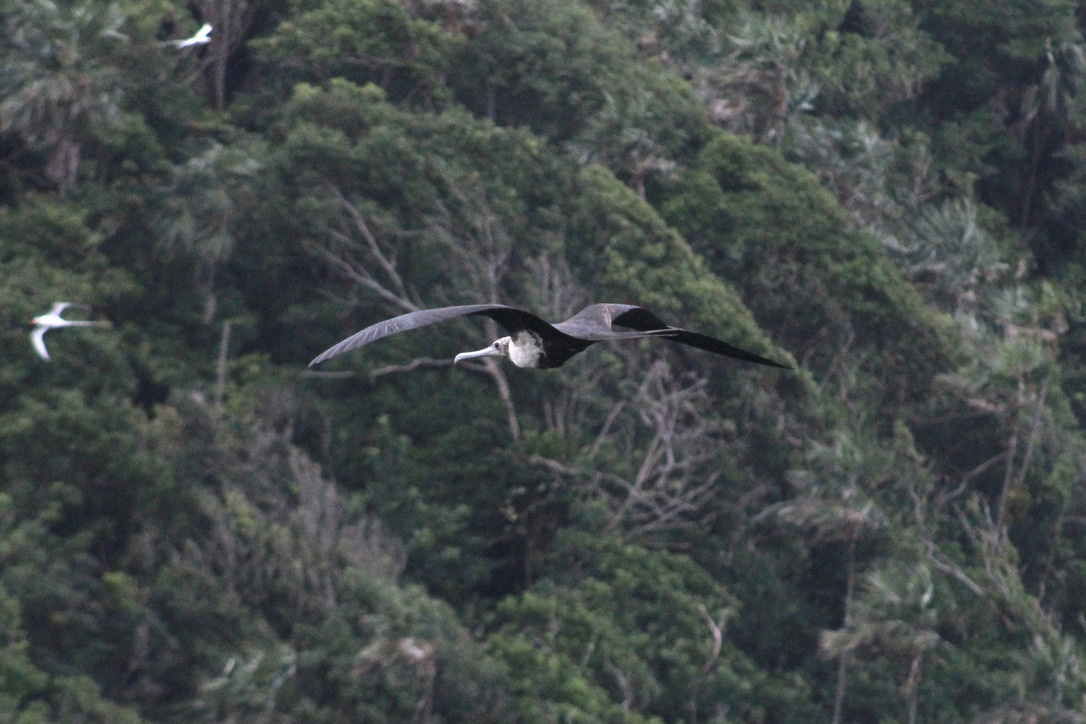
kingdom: Animalia
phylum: Chordata
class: Aves
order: Suliformes
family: Fregatidae
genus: Fregata
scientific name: Fregata magnificens
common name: Magnificent frigatebird
